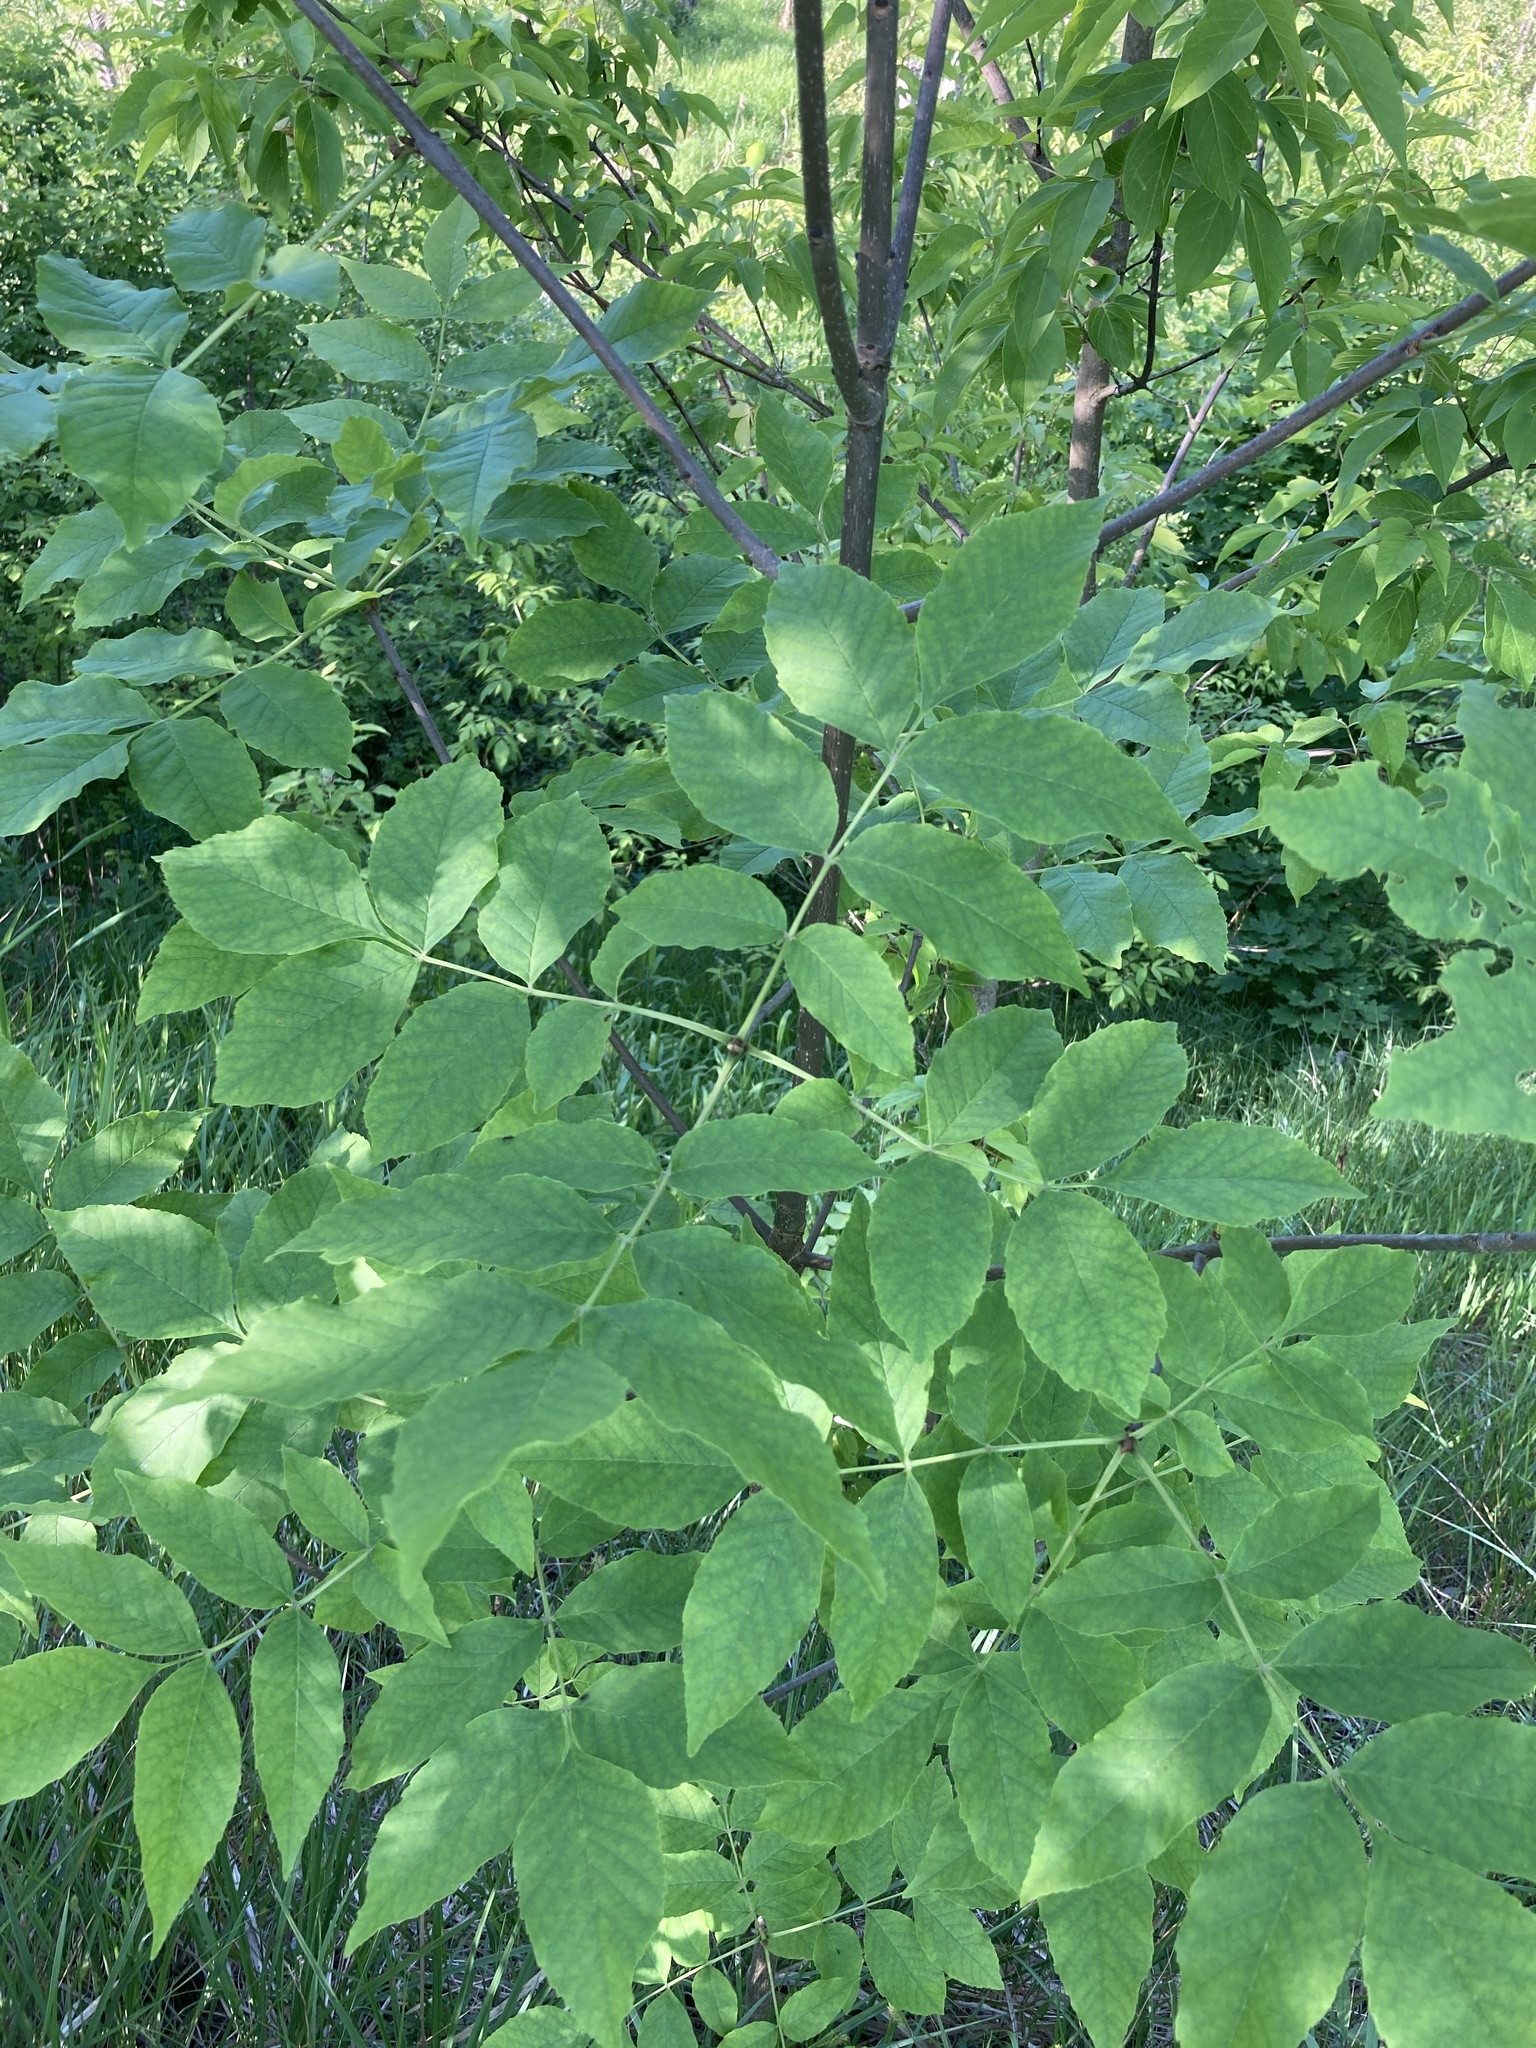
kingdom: Plantae
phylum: Tracheophyta
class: Magnoliopsida
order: Lamiales
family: Oleaceae
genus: Fraxinus
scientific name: Fraxinus pennsylvanica
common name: Green ash
